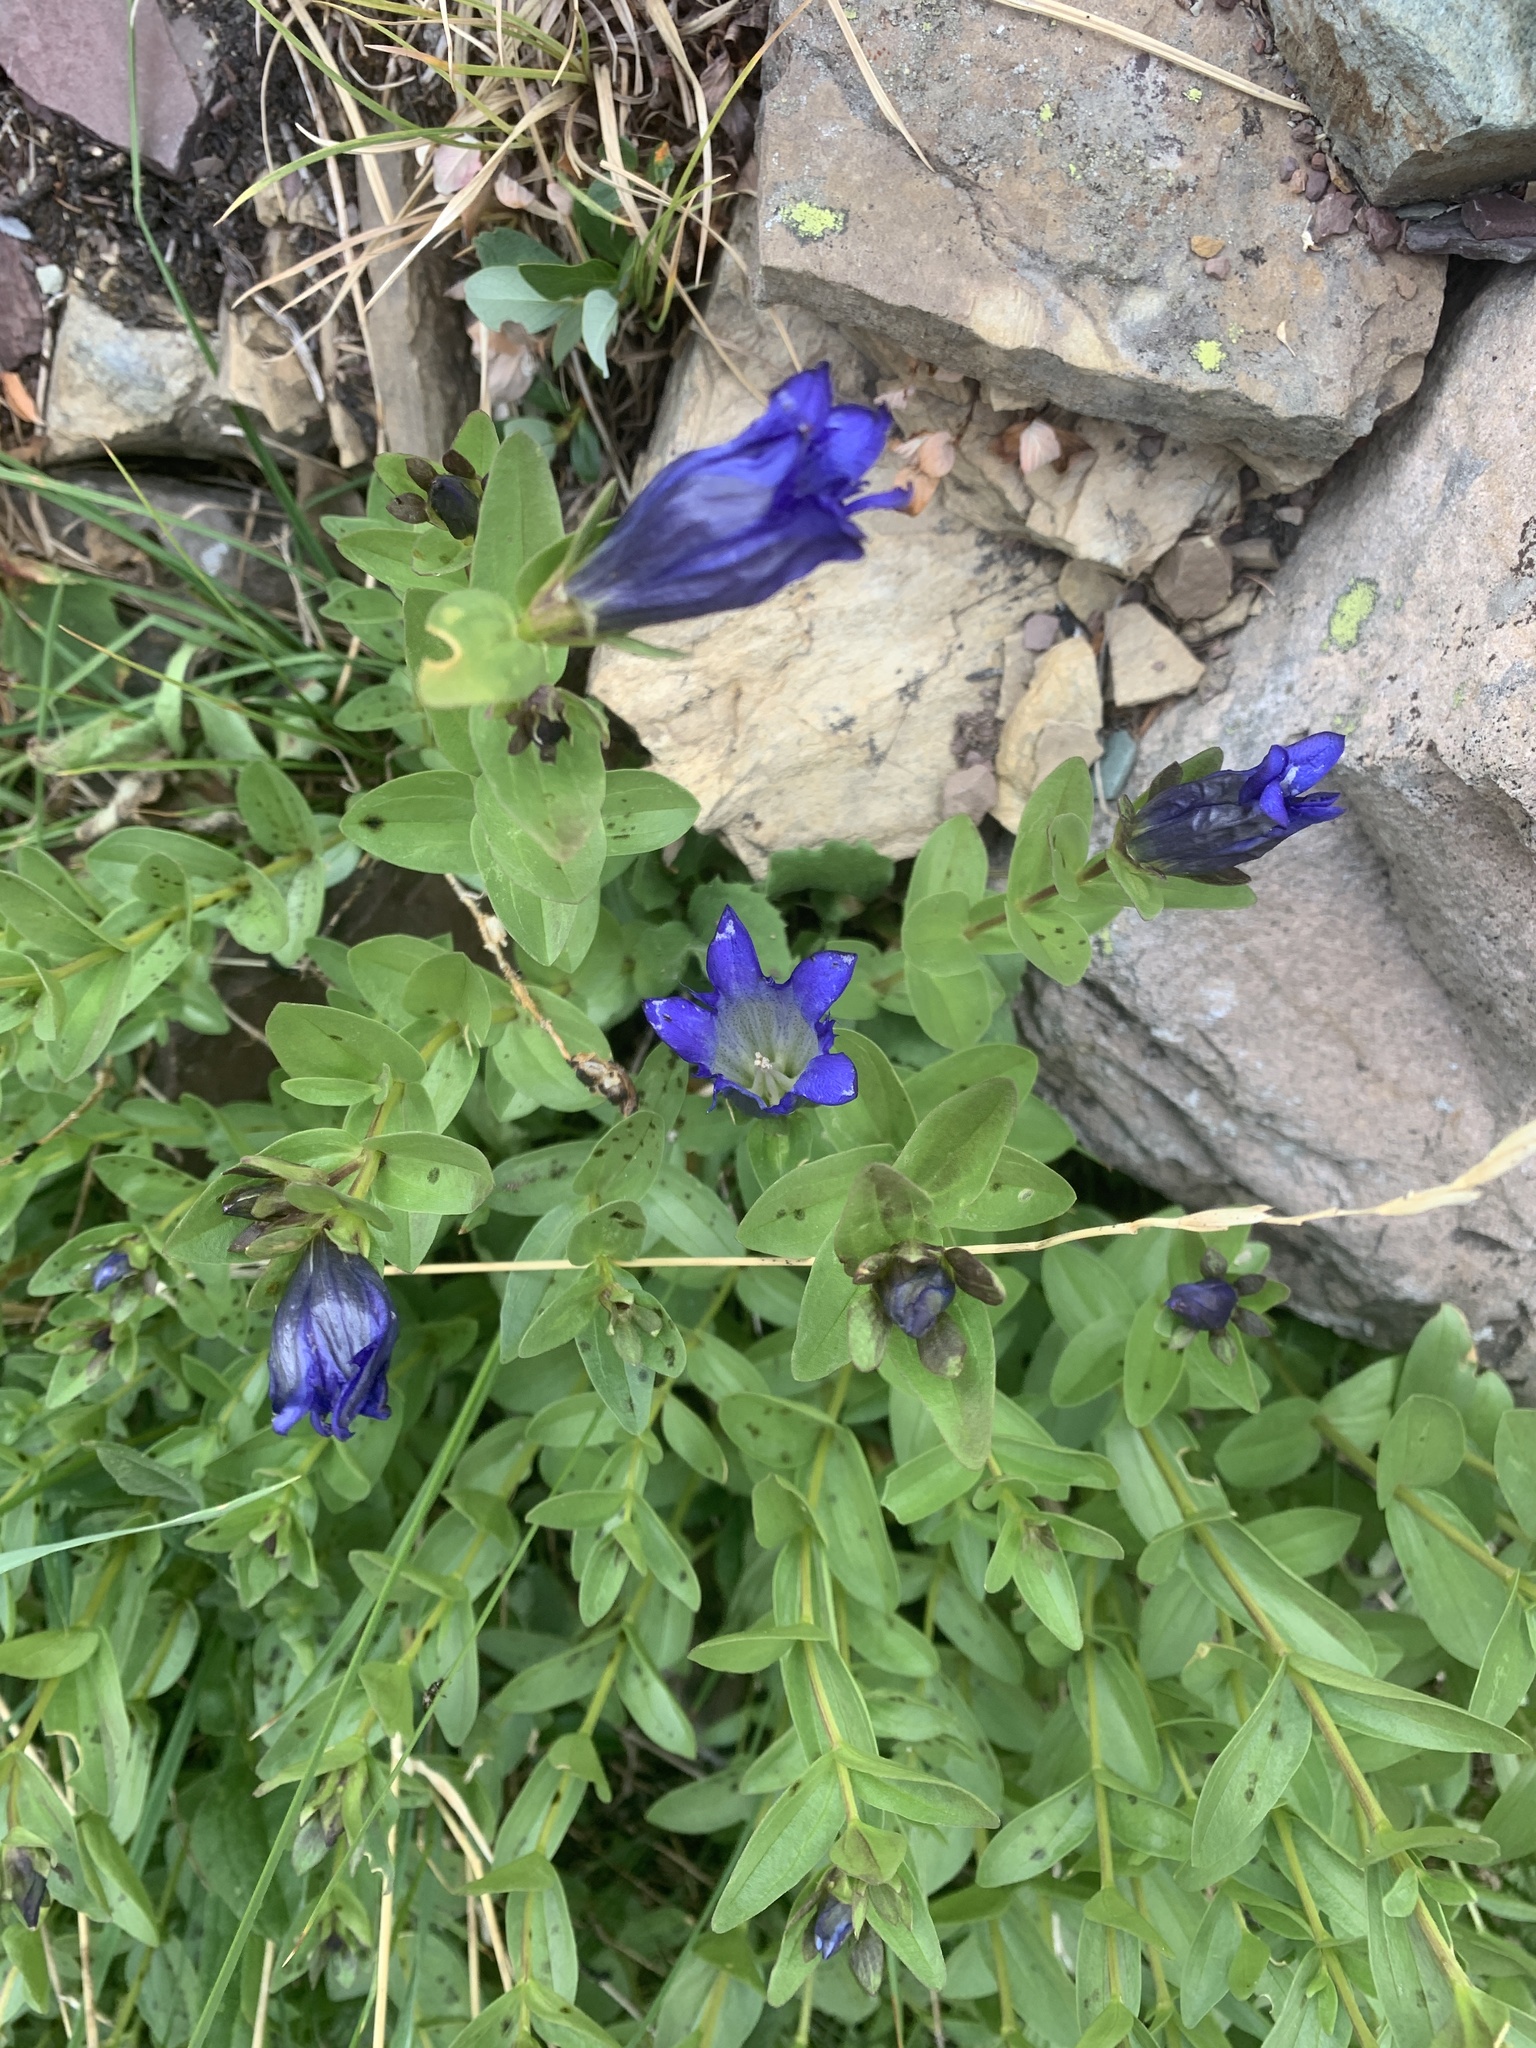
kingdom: Plantae
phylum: Tracheophyta
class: Magnoliopsida
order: Gentianales
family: Gentianaceae
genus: Gentiana
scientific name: Gentiana calycosa
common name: Rainier pleated gentian
